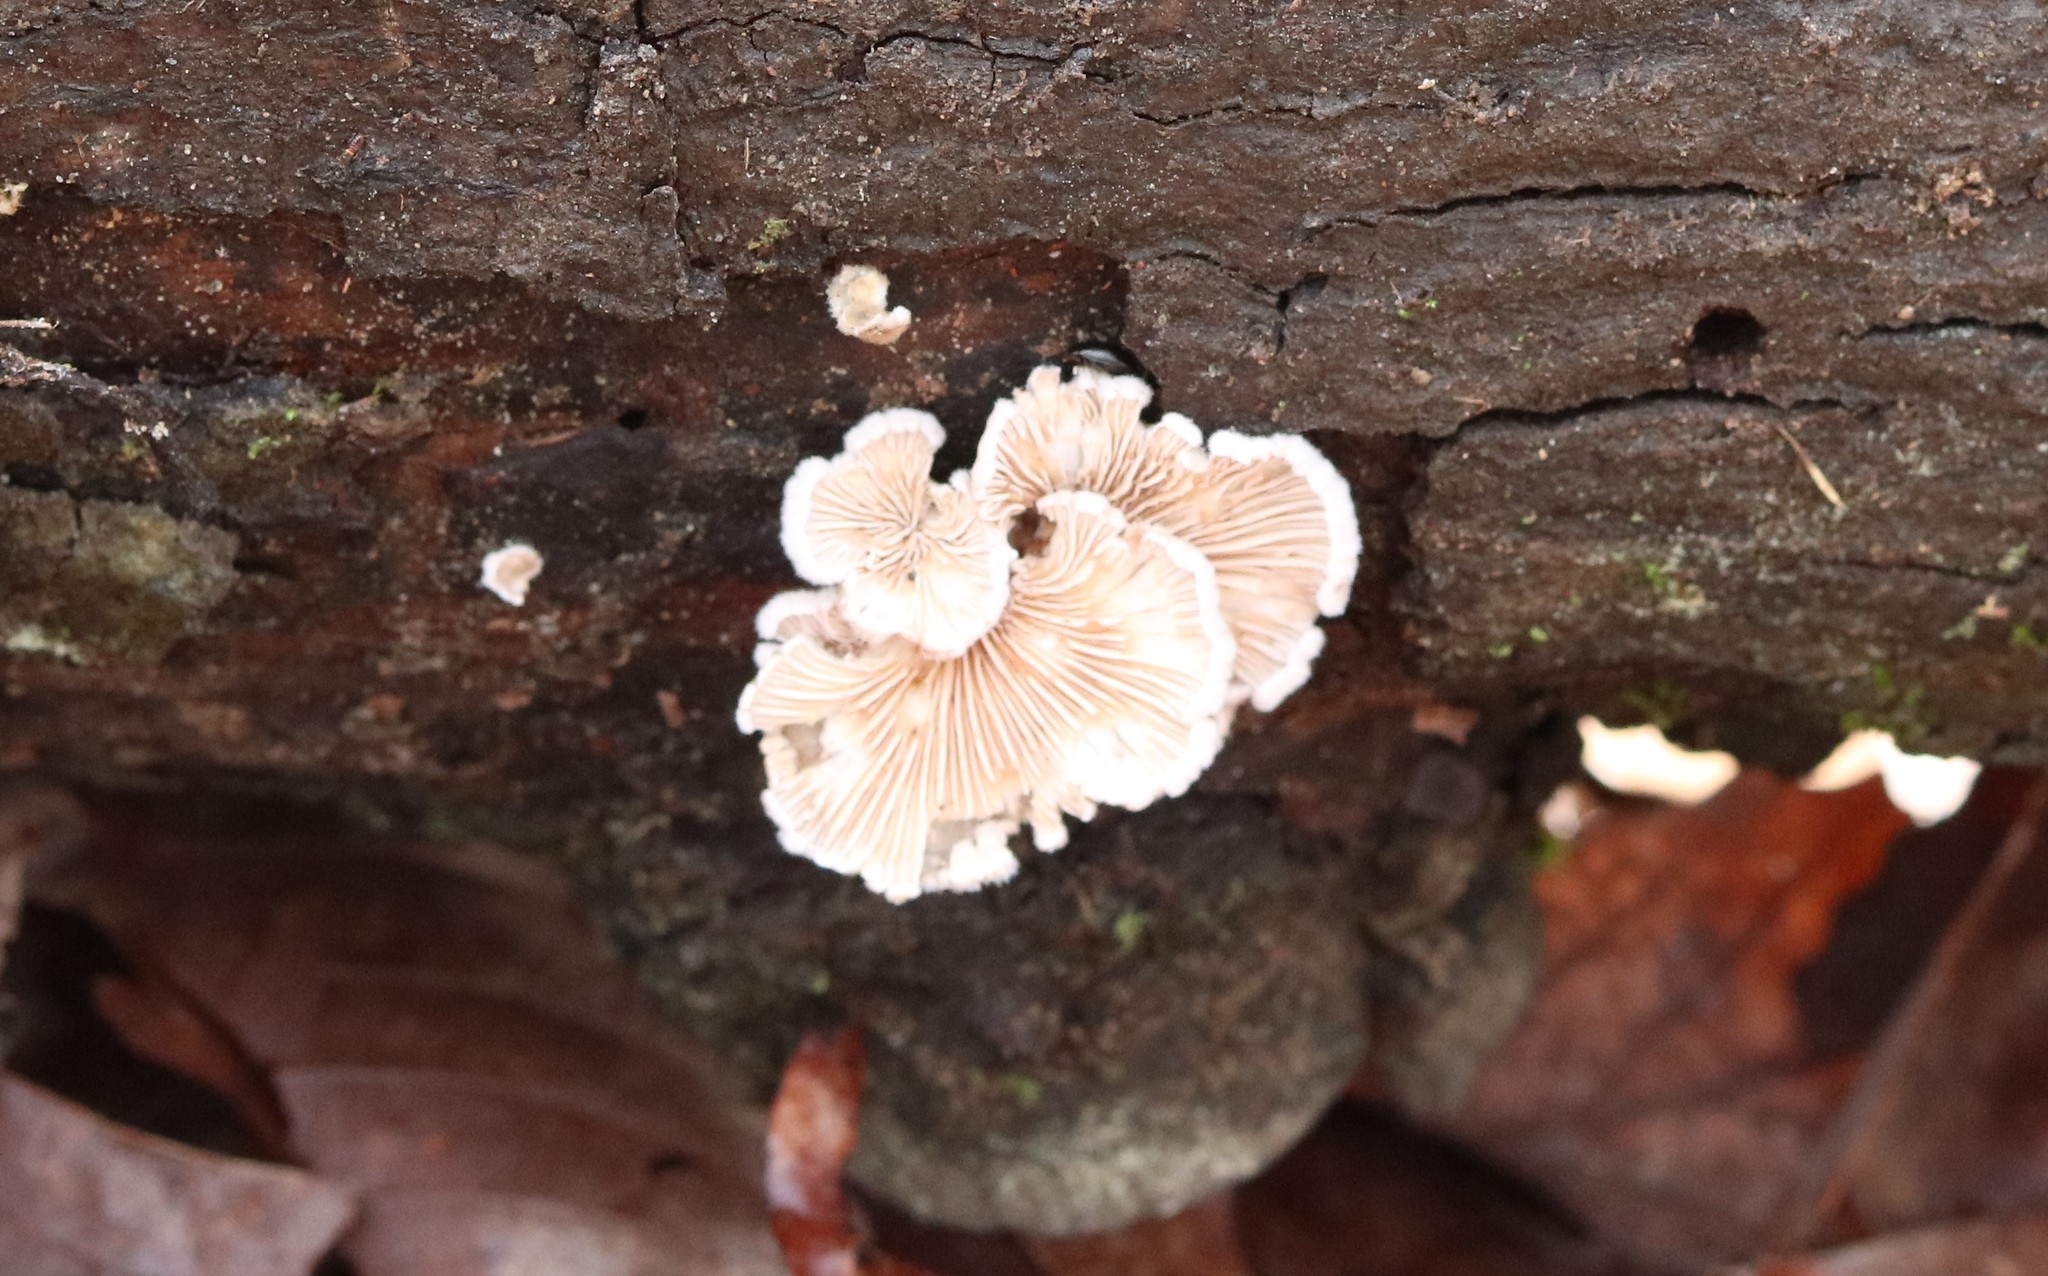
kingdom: Fungi
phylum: Basidiomycota
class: Agaricomycetes
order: Agaricales
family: Schizophyllaceae
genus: Schizophyllum
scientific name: Schizophyllum commune
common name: Common porecrust
